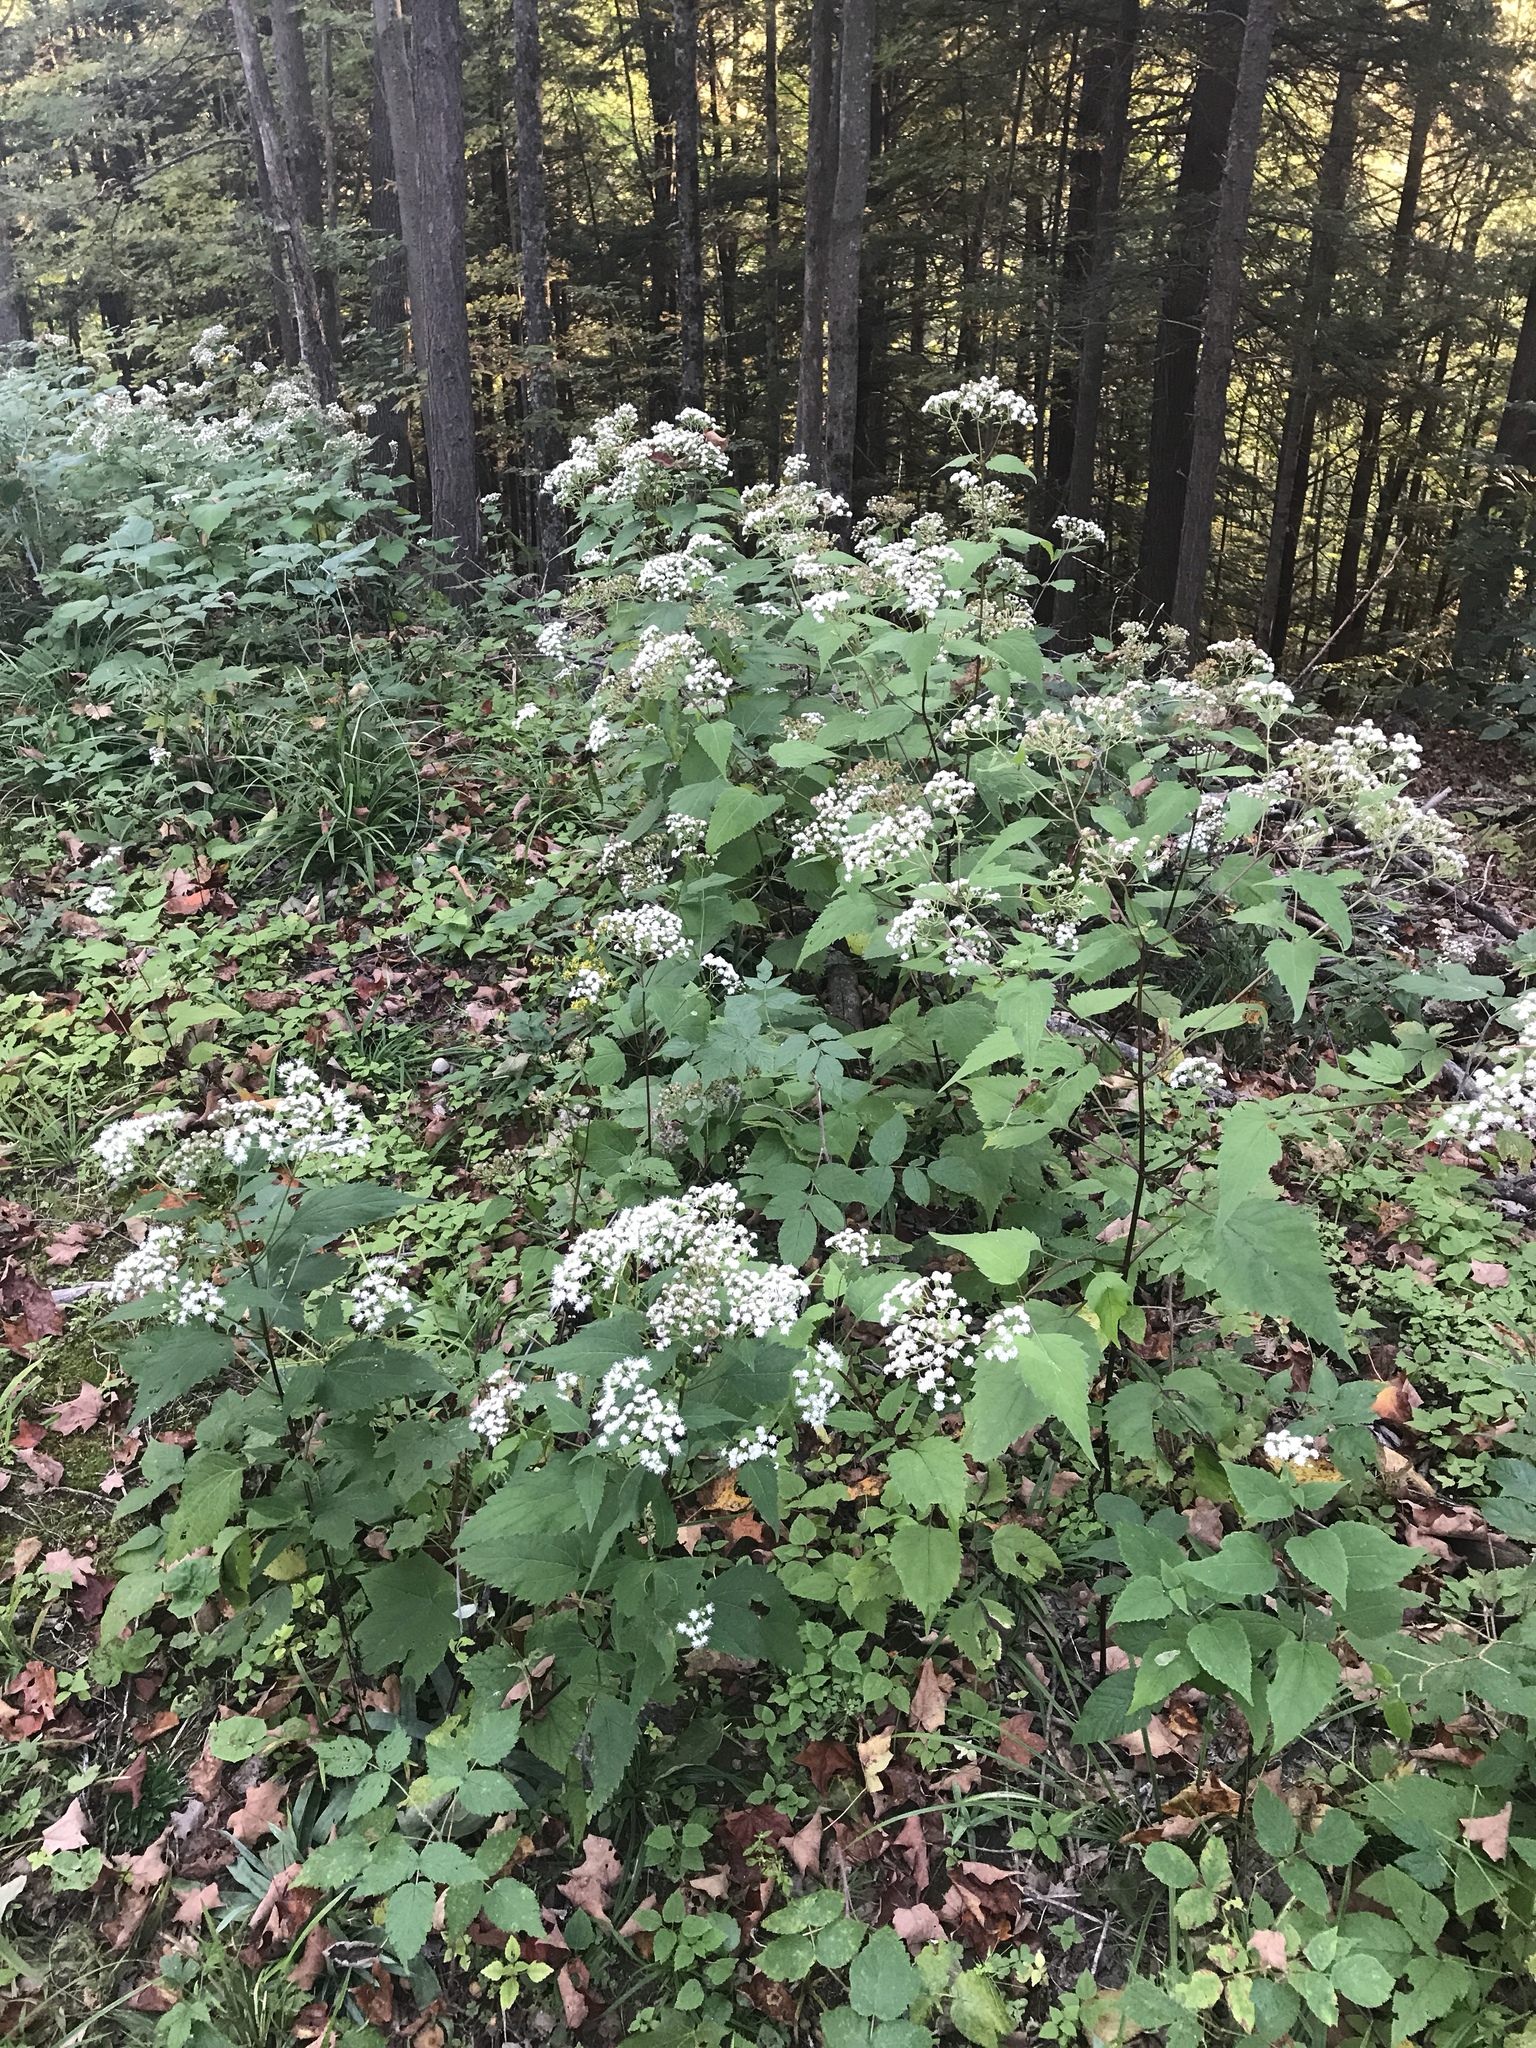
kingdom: Plantae
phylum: Tracheophyta
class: Magnoliopsida
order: Asterales
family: Asteraceae
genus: Ageratina
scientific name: Ageratina altissima
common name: White snakeroot
